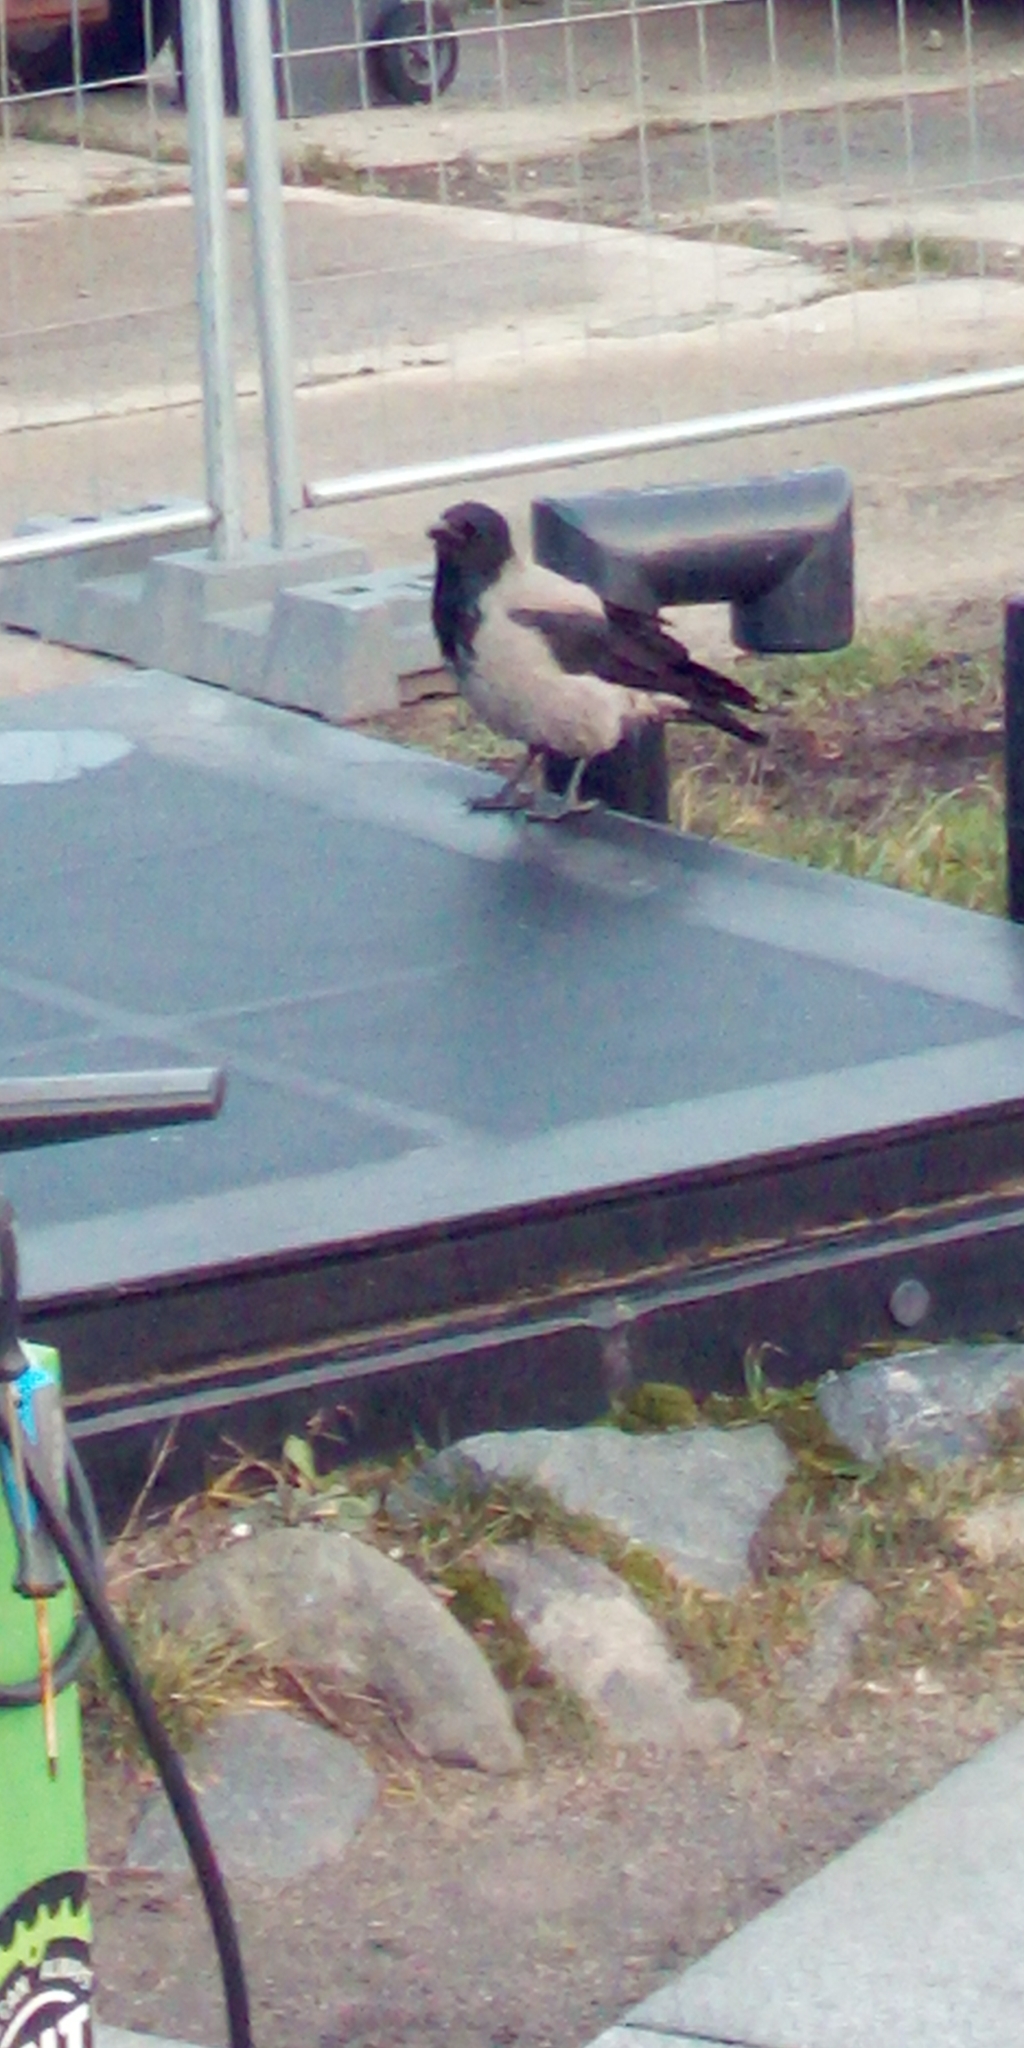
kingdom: Animalia
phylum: Chordata
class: Aves
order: Passeriformes
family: Corvidae
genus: Corvus
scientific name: Corvus cornix
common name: Hooded crow
